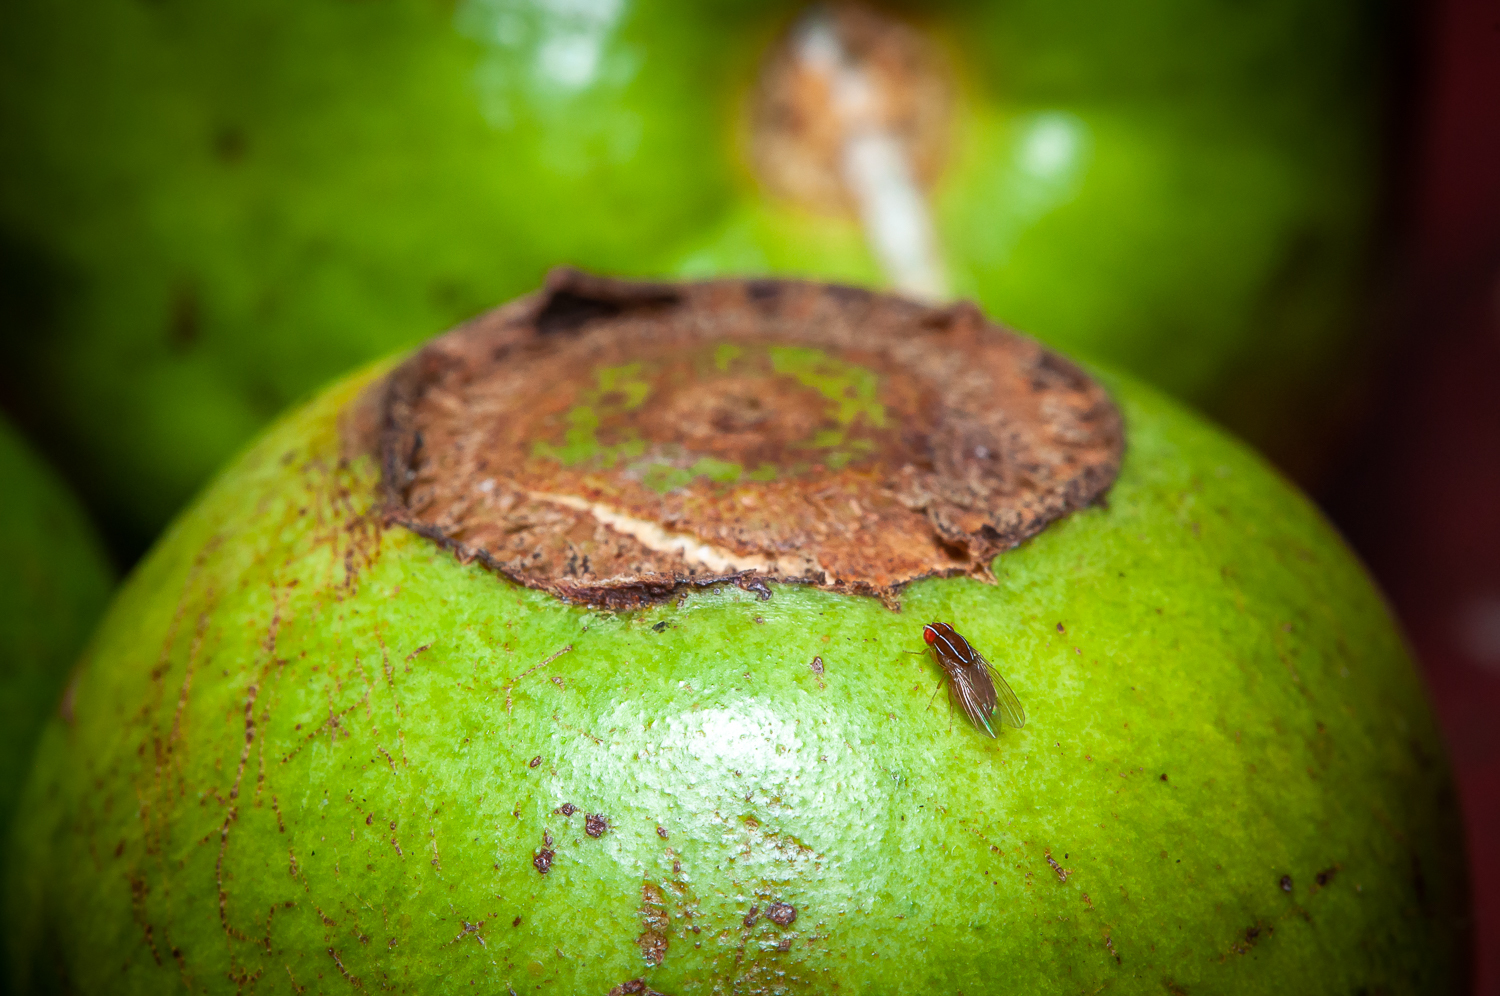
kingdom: Animalia
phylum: Arthropoda
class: Insecta
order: Diptera
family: Drosophilidae
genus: Zaprionus
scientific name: Zaprionus indianus
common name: African fig fly
